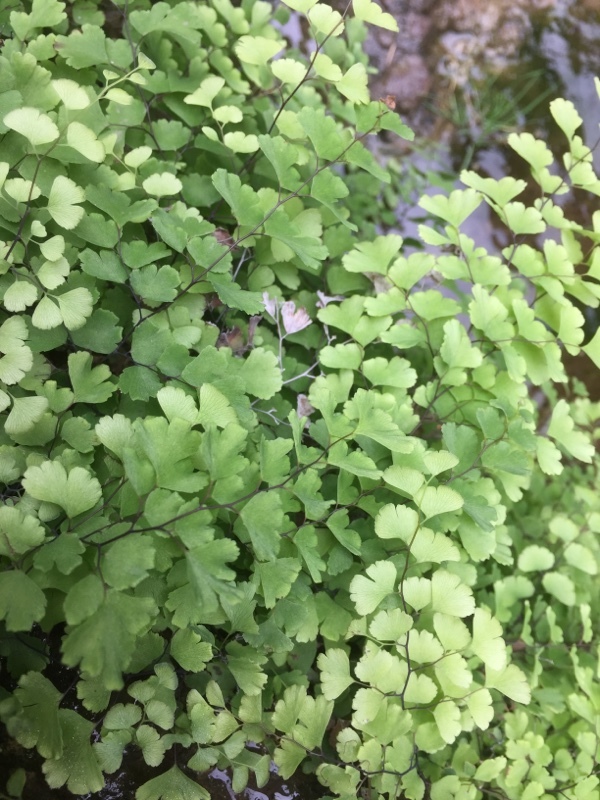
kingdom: Plantae
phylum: Tracheophyta
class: Polypodiopsida
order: Polypodiales
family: Pteridaceae
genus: Adiantum
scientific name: Adiantum capillus-veneris
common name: Maidenhair fern
